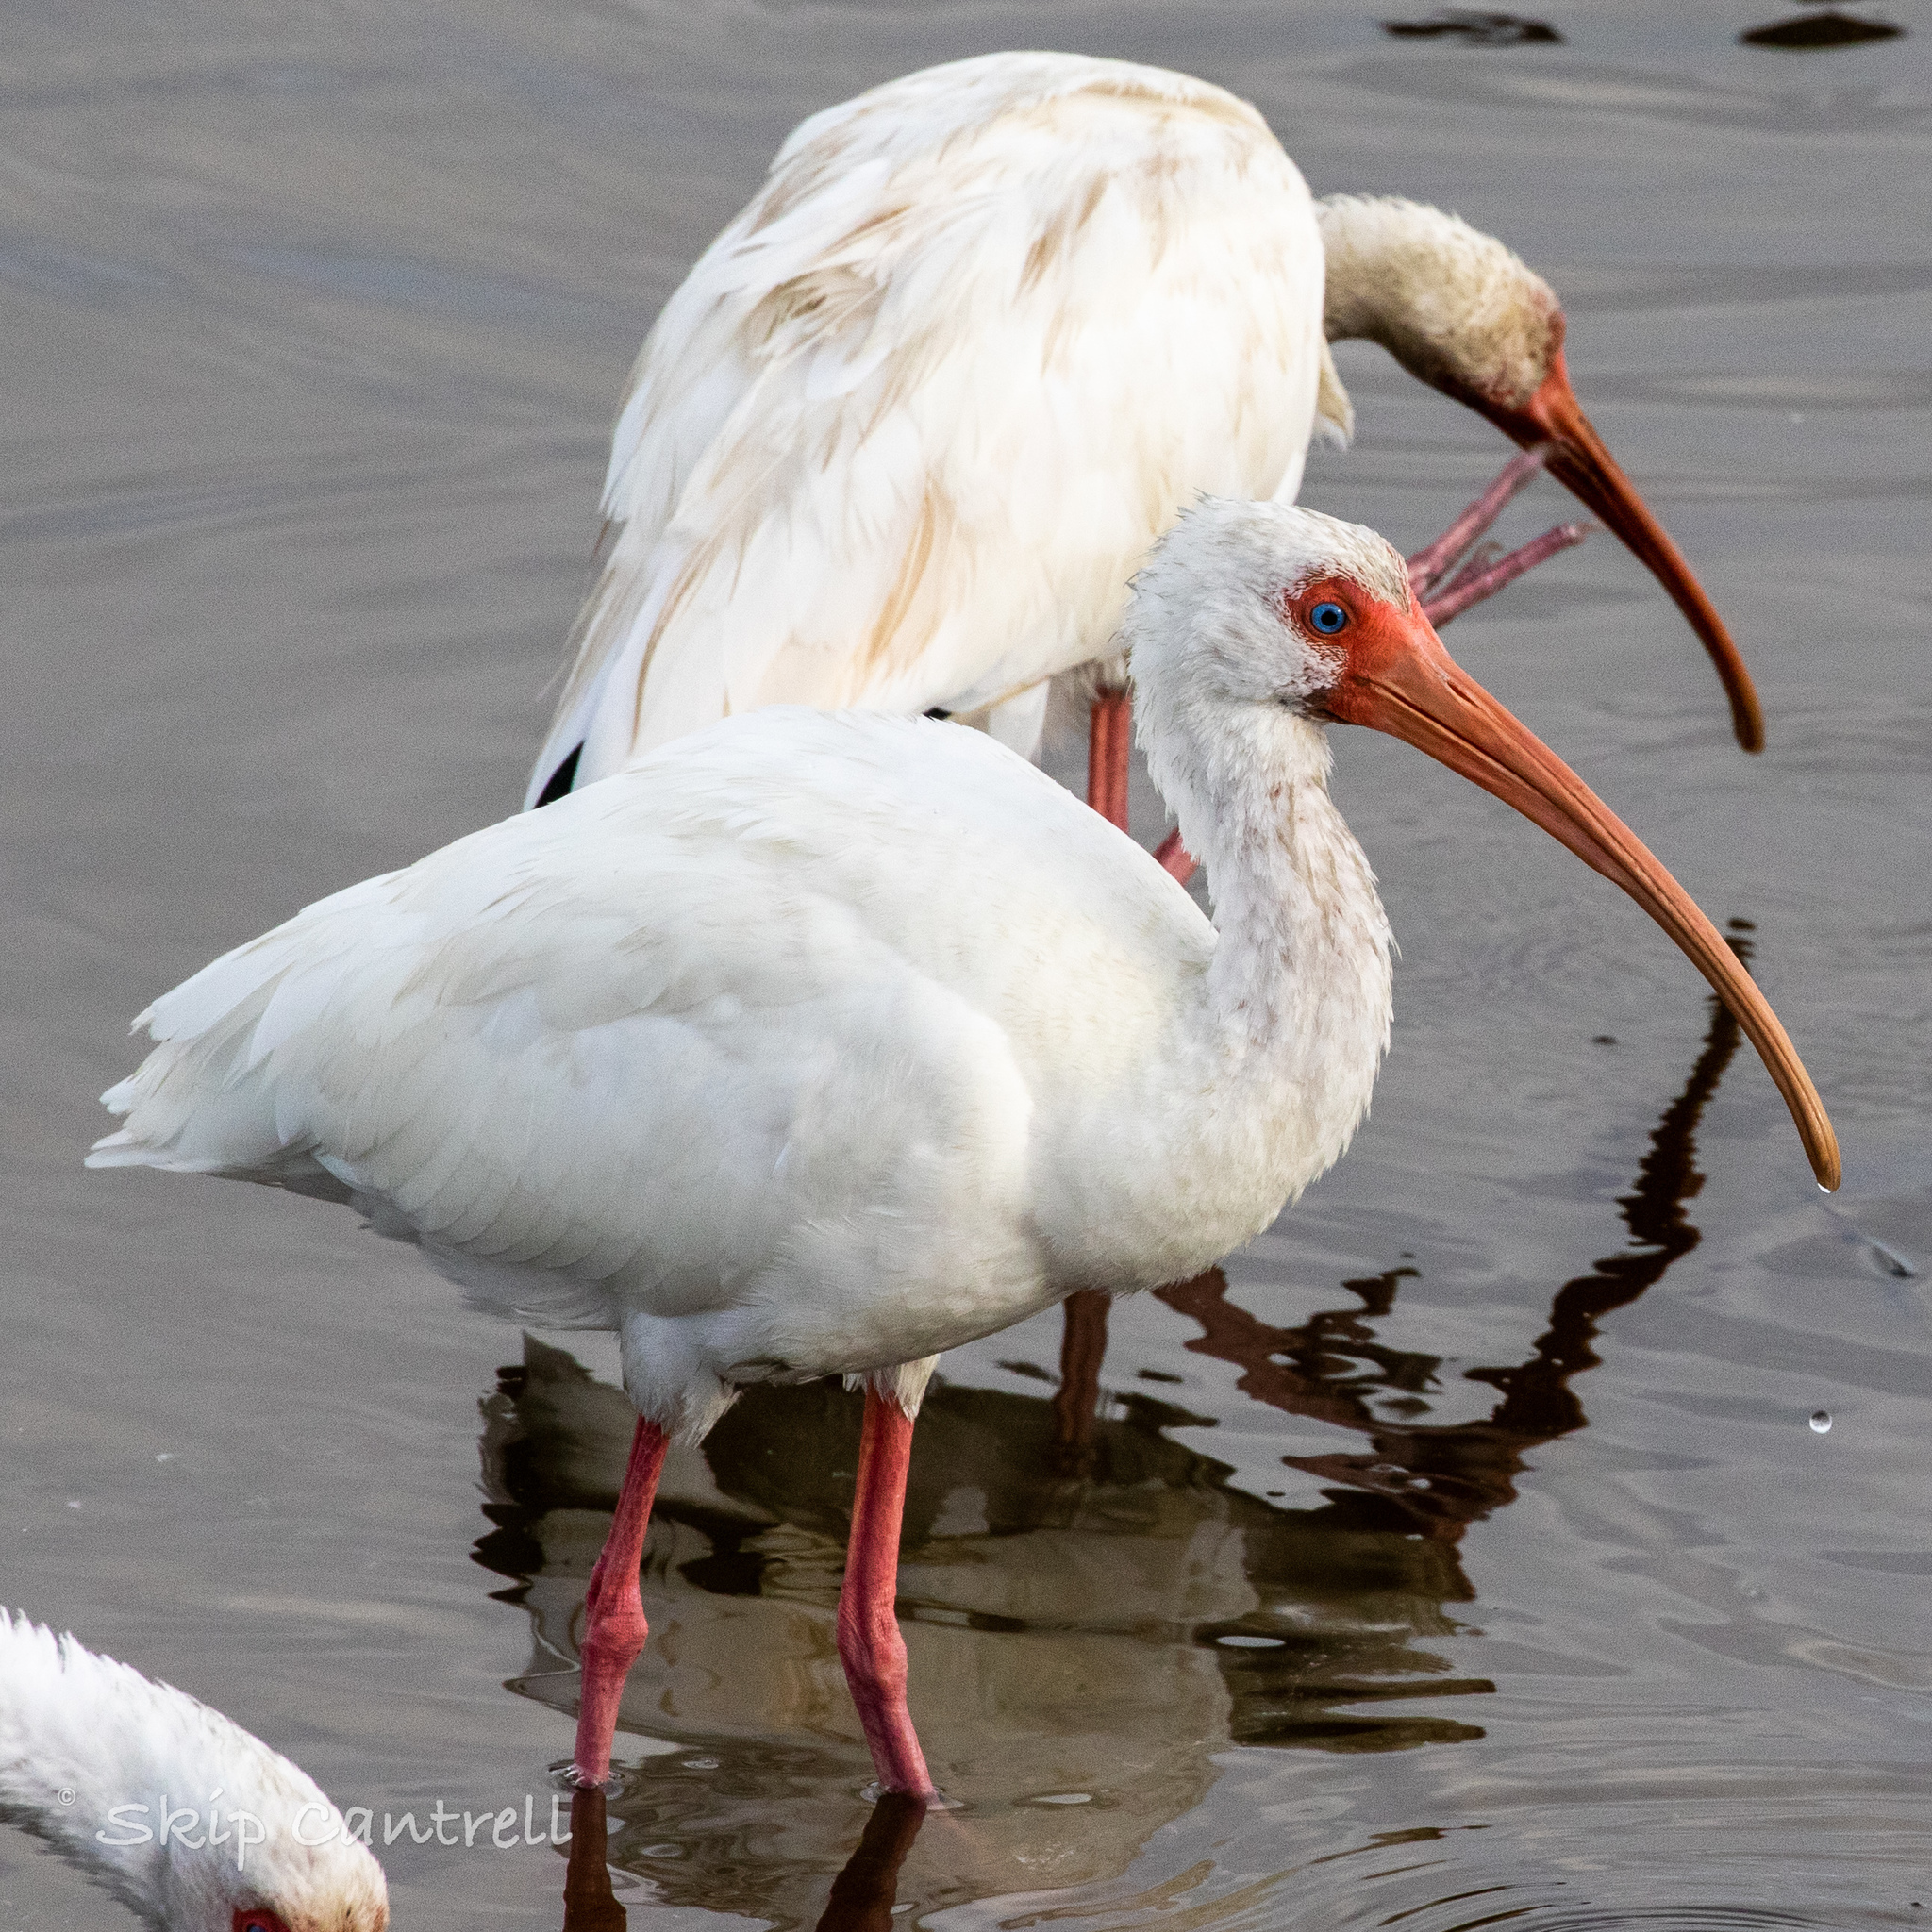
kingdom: Animalia
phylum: Chordata
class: Aves
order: Pelecaniformes
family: Threskiornithidae
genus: Eudocimus
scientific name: Eudocimus albus
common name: White ibis
